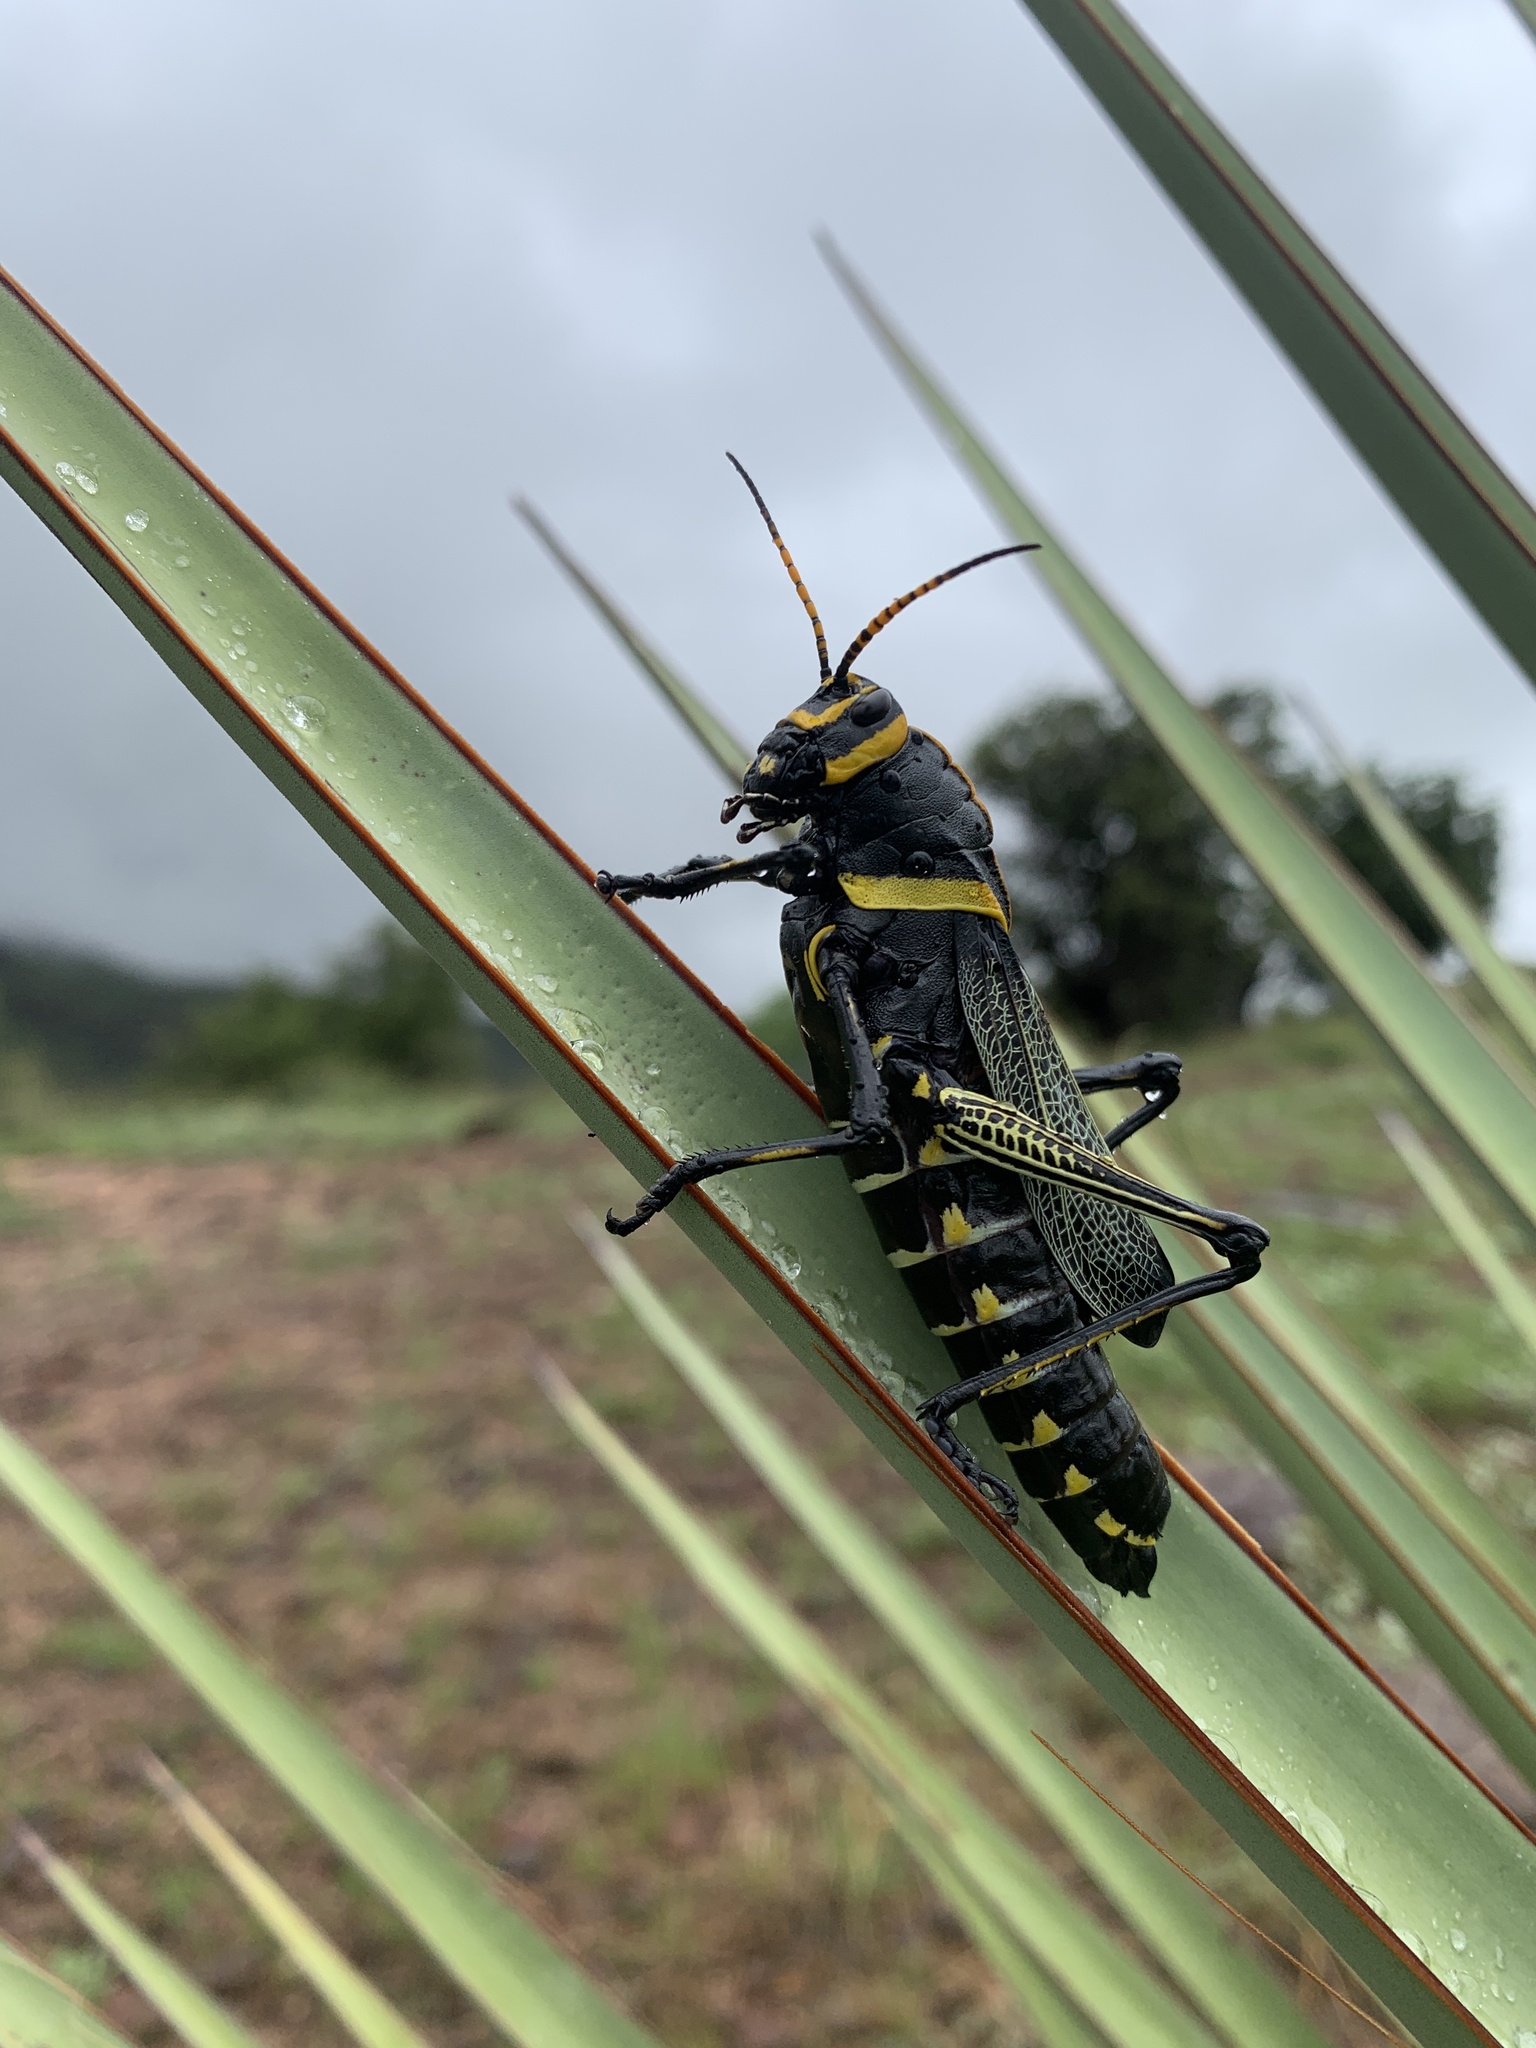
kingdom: Animalia
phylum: Arthropoda
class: Insecta
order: Orthoptera
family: Romaleidae
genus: Romalea
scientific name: Romalea
